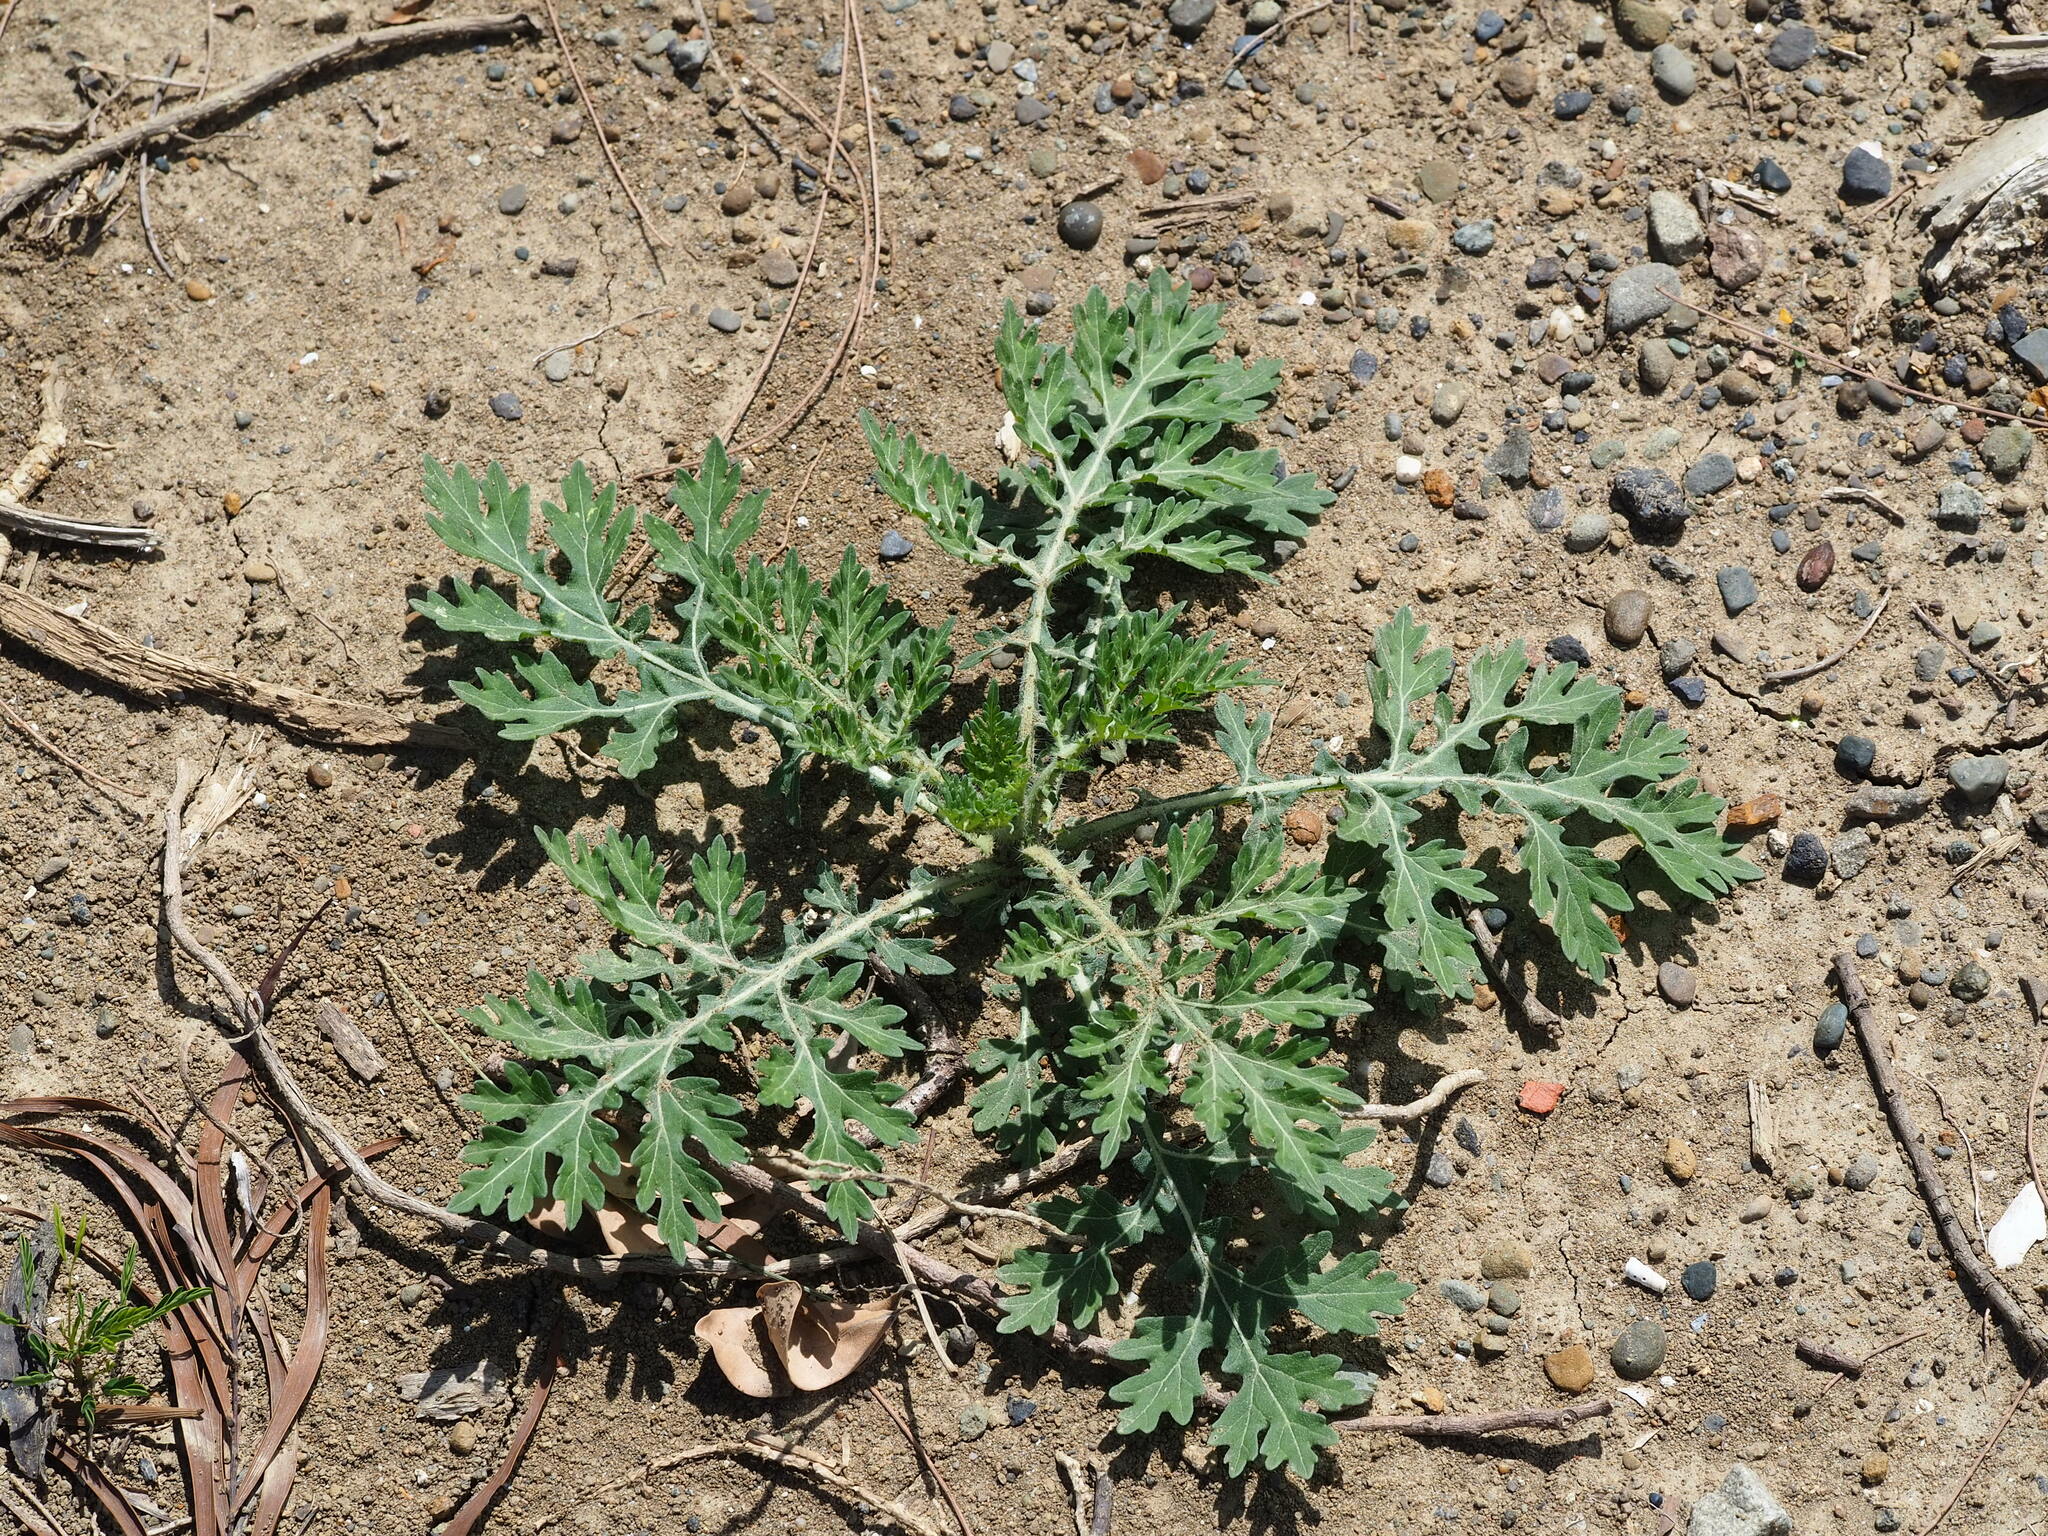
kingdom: Plantae
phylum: Tracheophyta
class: Magnoliopsida
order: Asterales
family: Asteraceae
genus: Parthenium
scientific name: Parthenium hysterophorus
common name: Santa maria feverfew
